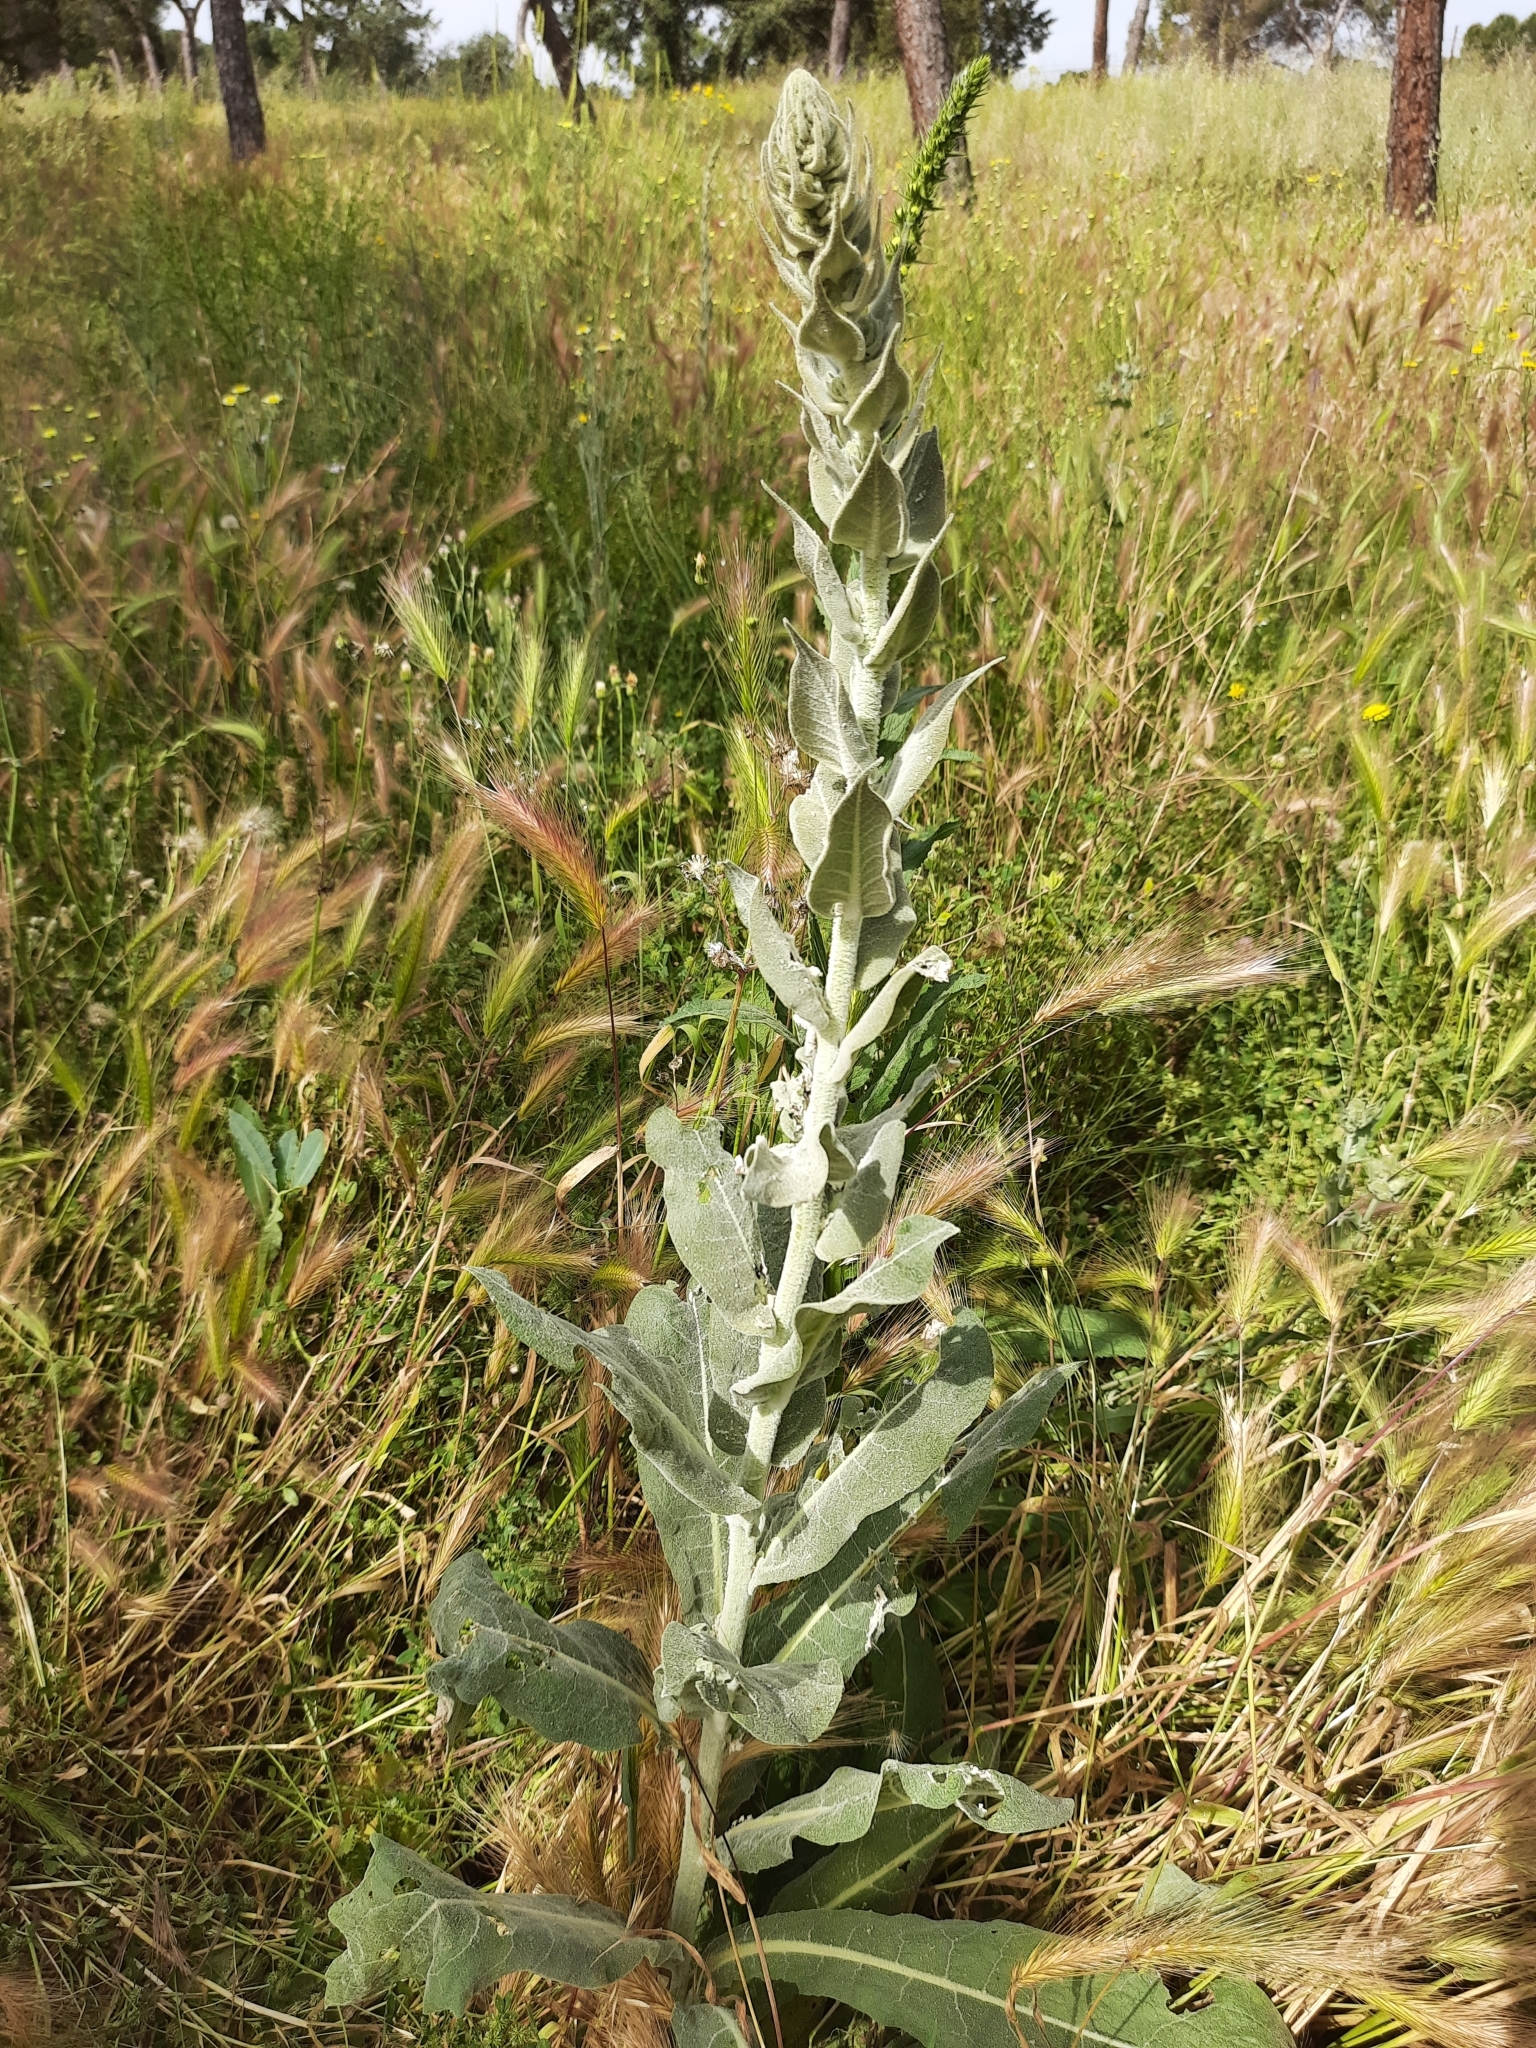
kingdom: Plantae
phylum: Tracheophyta
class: Magnoliopsida
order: Lamiales
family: Scrophulariaceae
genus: Verbascum
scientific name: Verbascum pulverulentum
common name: Broad-leaf mullein
